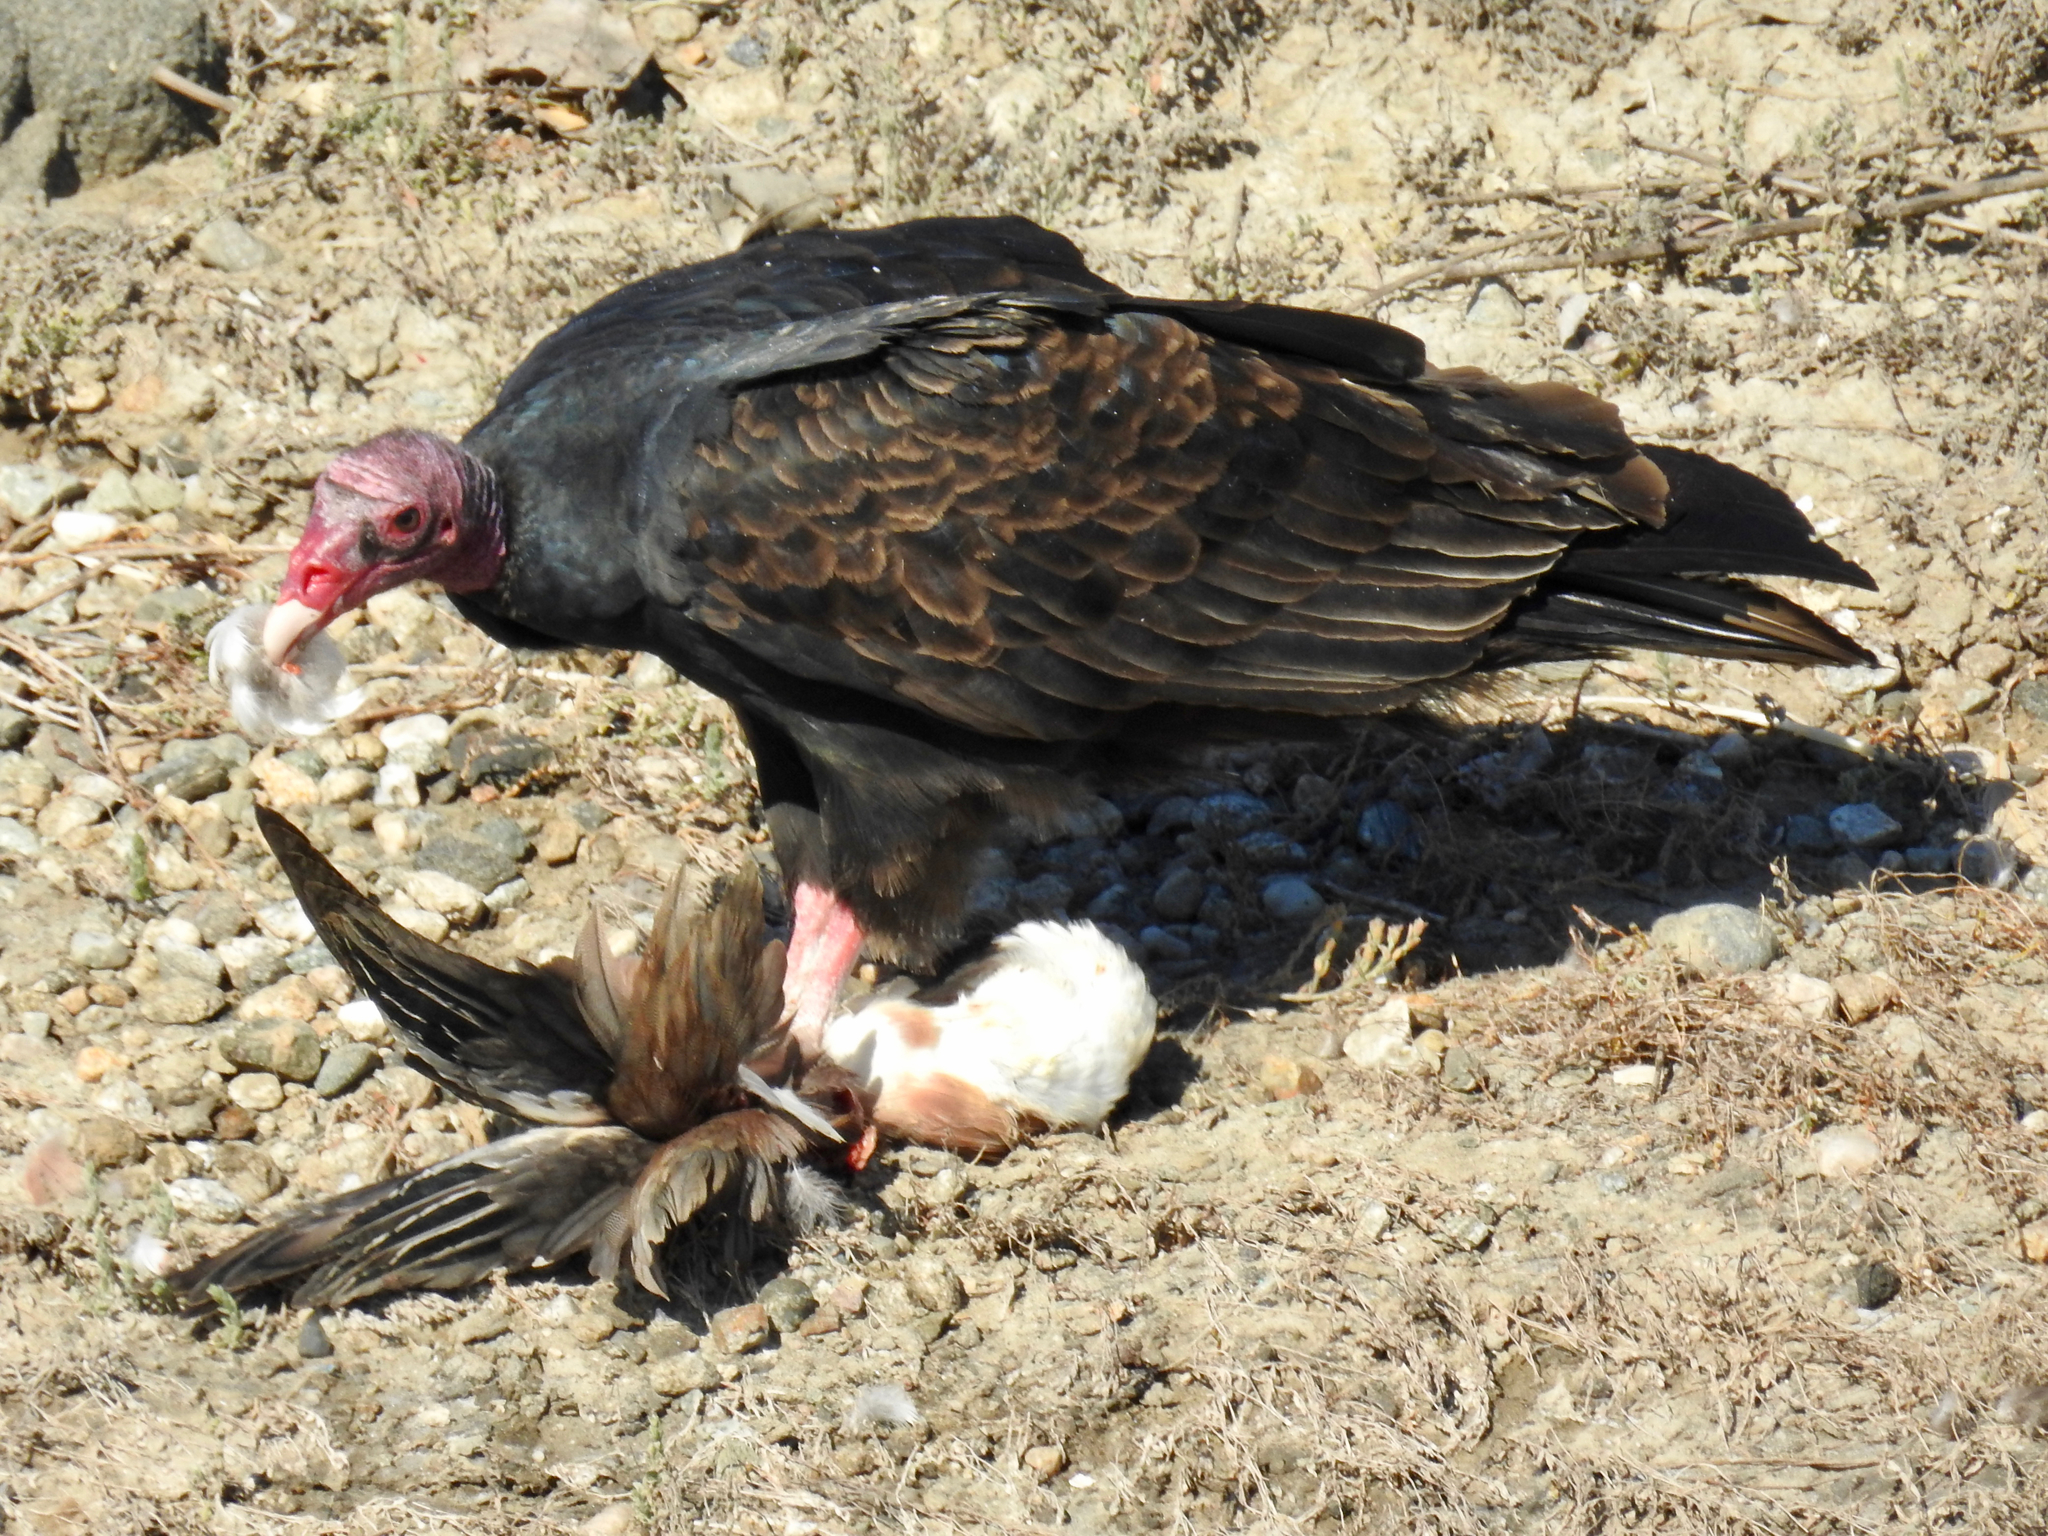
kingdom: Animalia
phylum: Chordata
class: Aves
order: Accipitriformes
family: Cathartidae
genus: Cathartes
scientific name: Cathartes aura
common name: Turkey vulture
